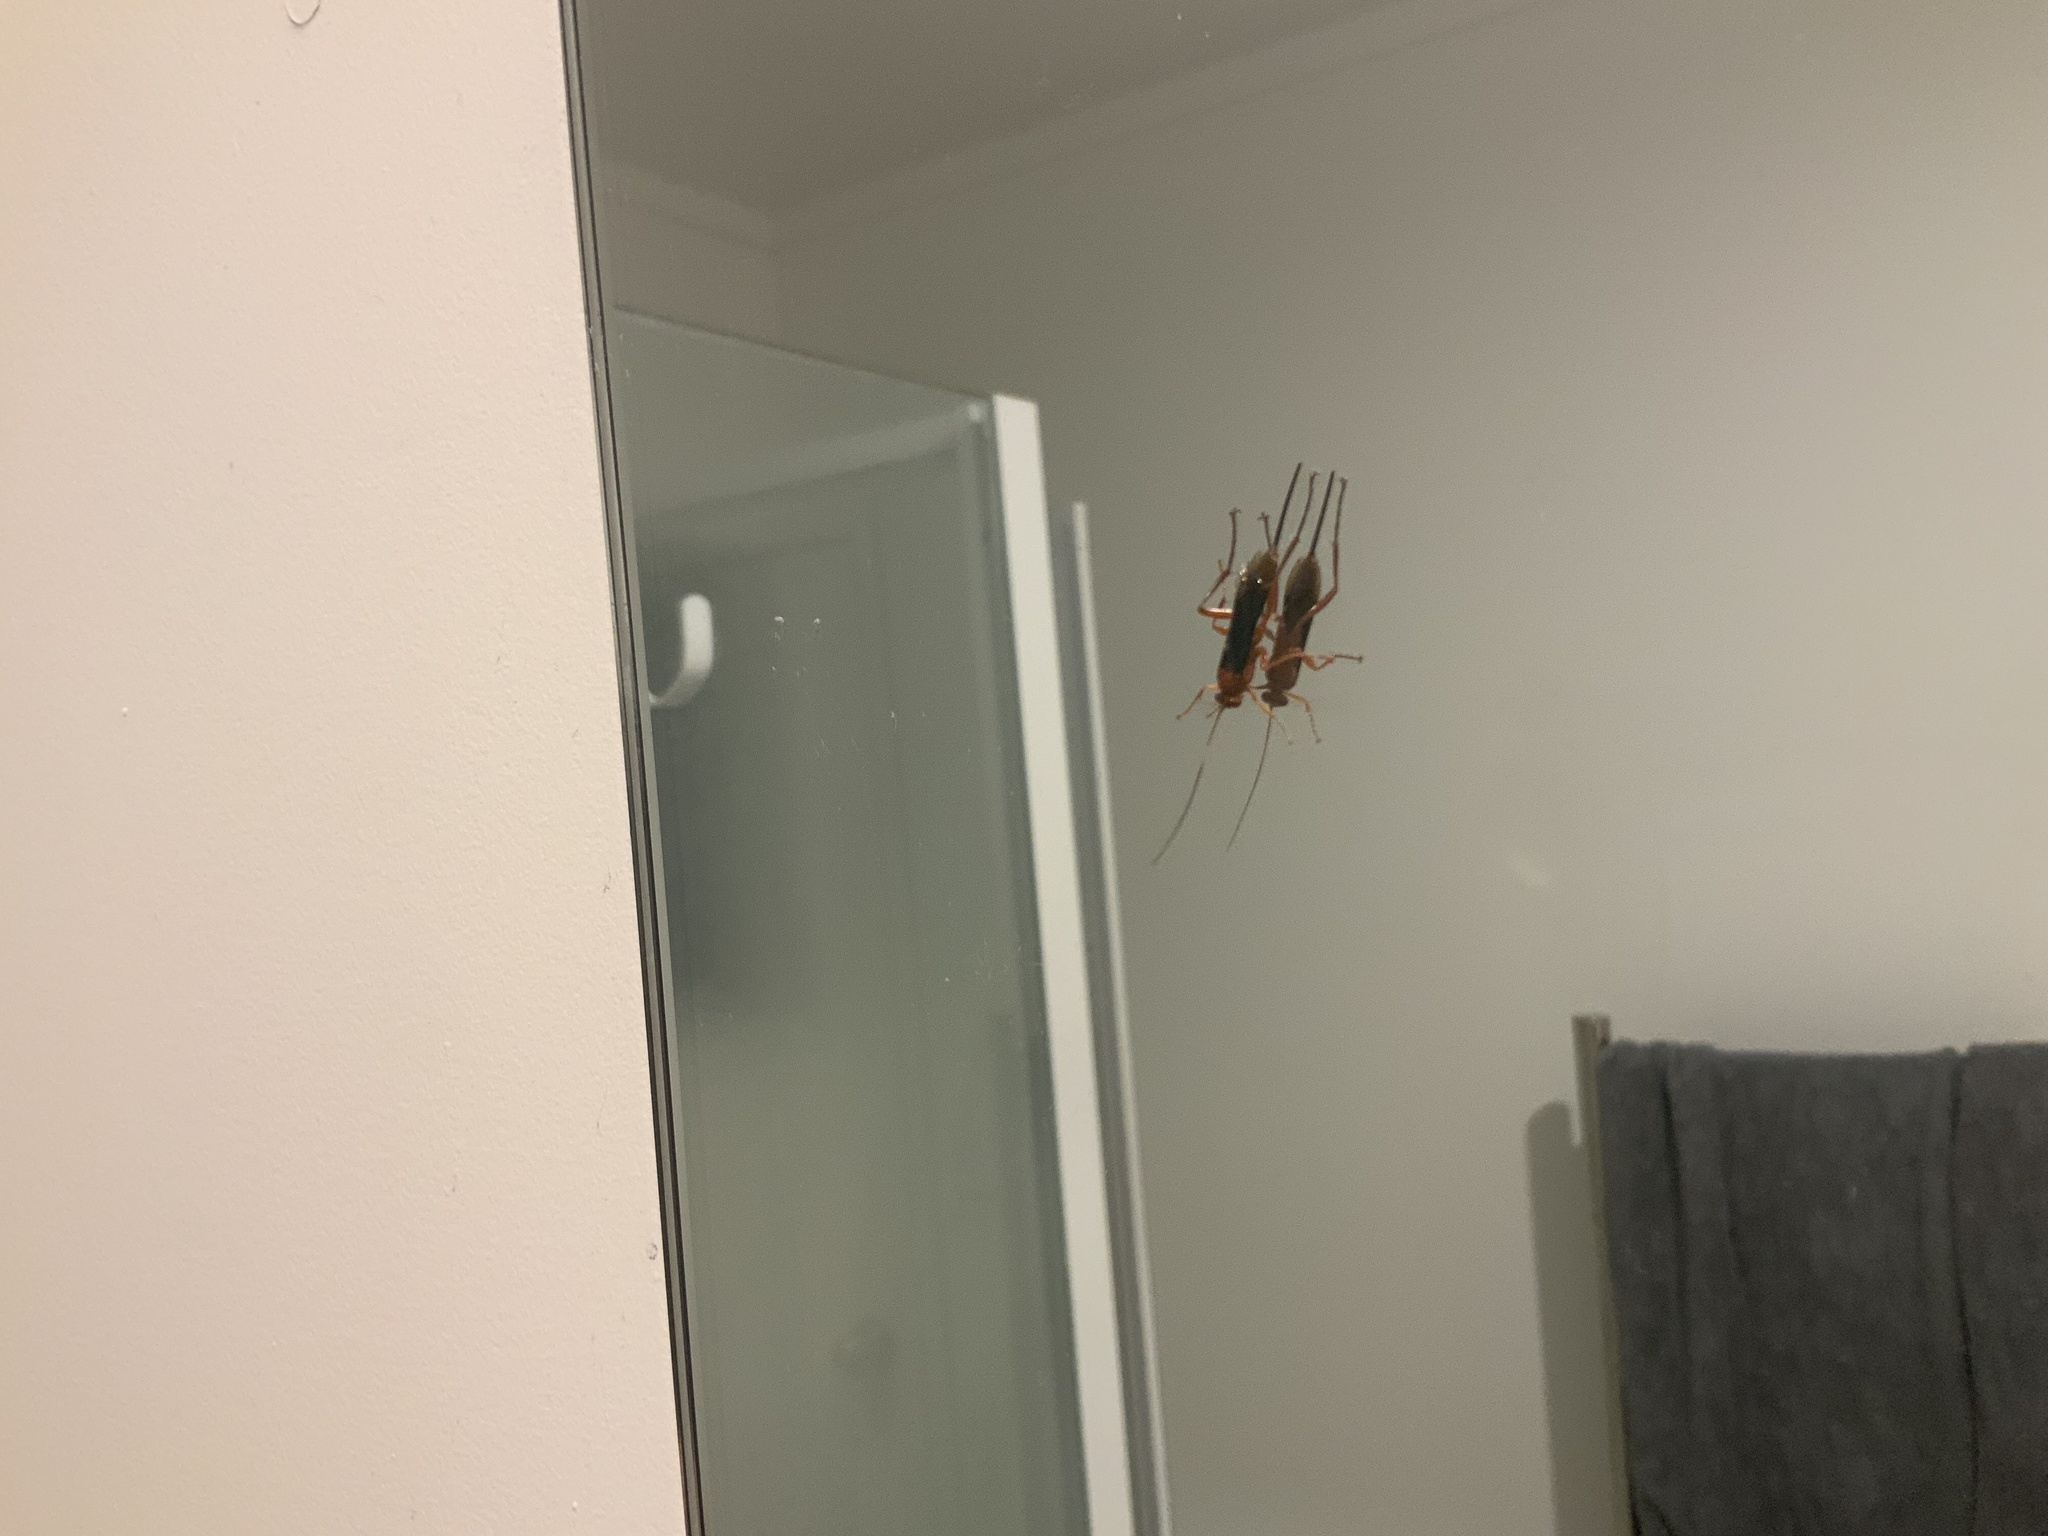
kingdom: Animalia
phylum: Arthropoda
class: Insecta
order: Hymenoptera
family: Ichneumonidae
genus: Lissopimpla
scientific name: Lissopimpla excelsa
